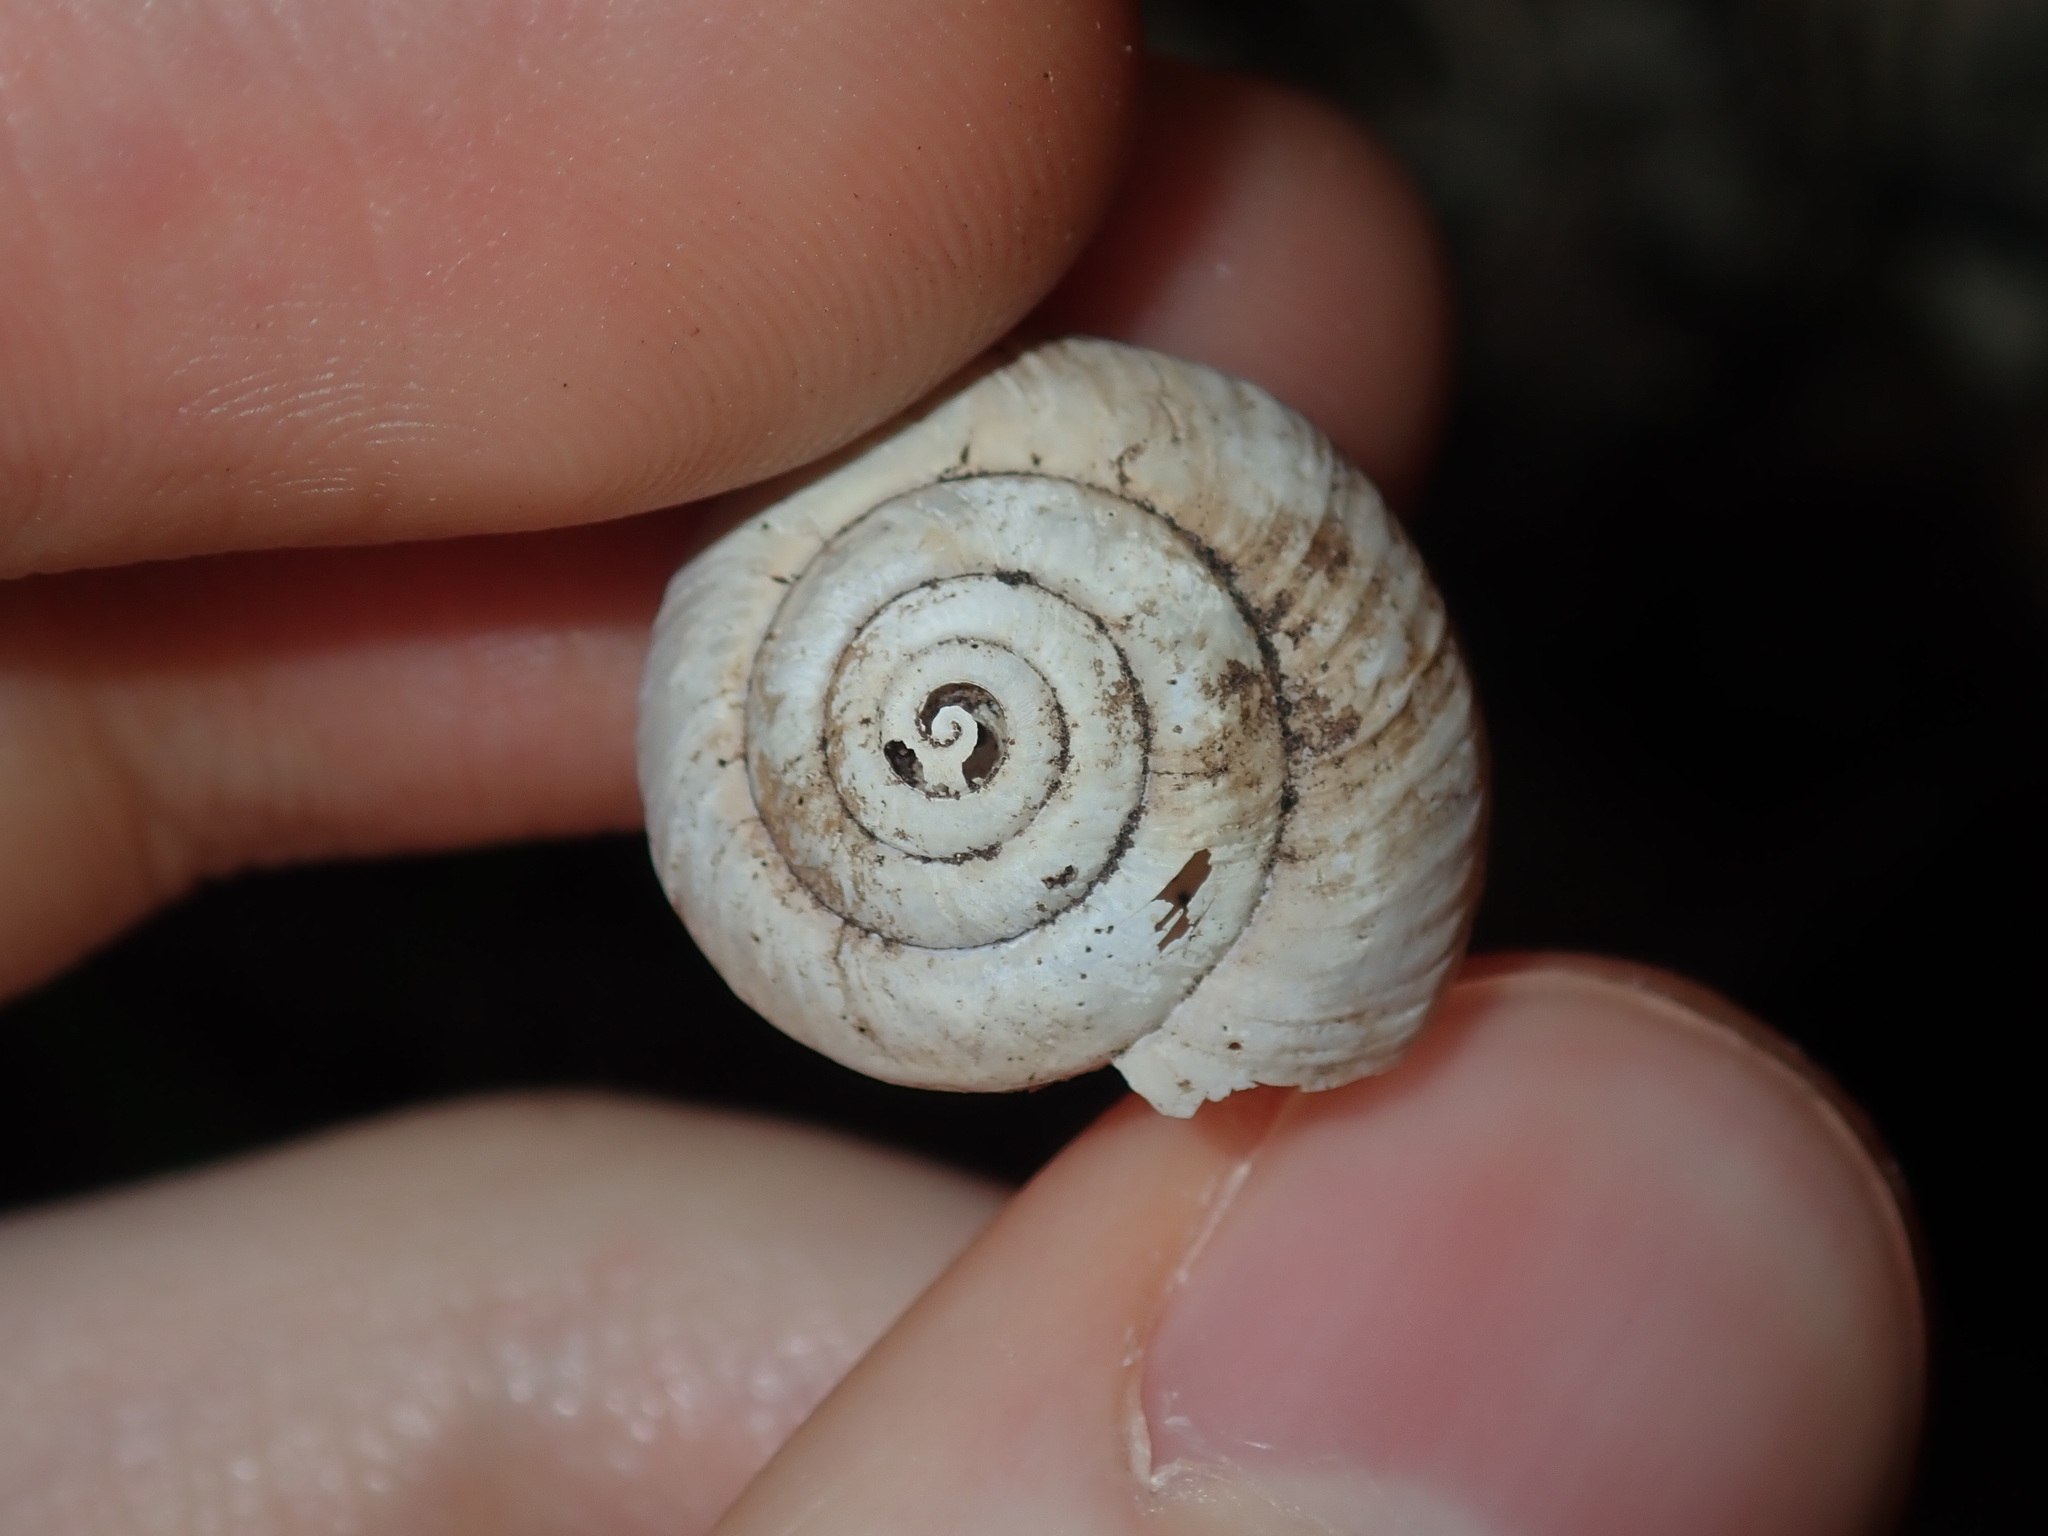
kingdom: Animalia
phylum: Mollusca
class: Gastropoda
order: Stylommatophora
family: Camaenidae
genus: Sauroconcha
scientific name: Sauroconcha sheai
